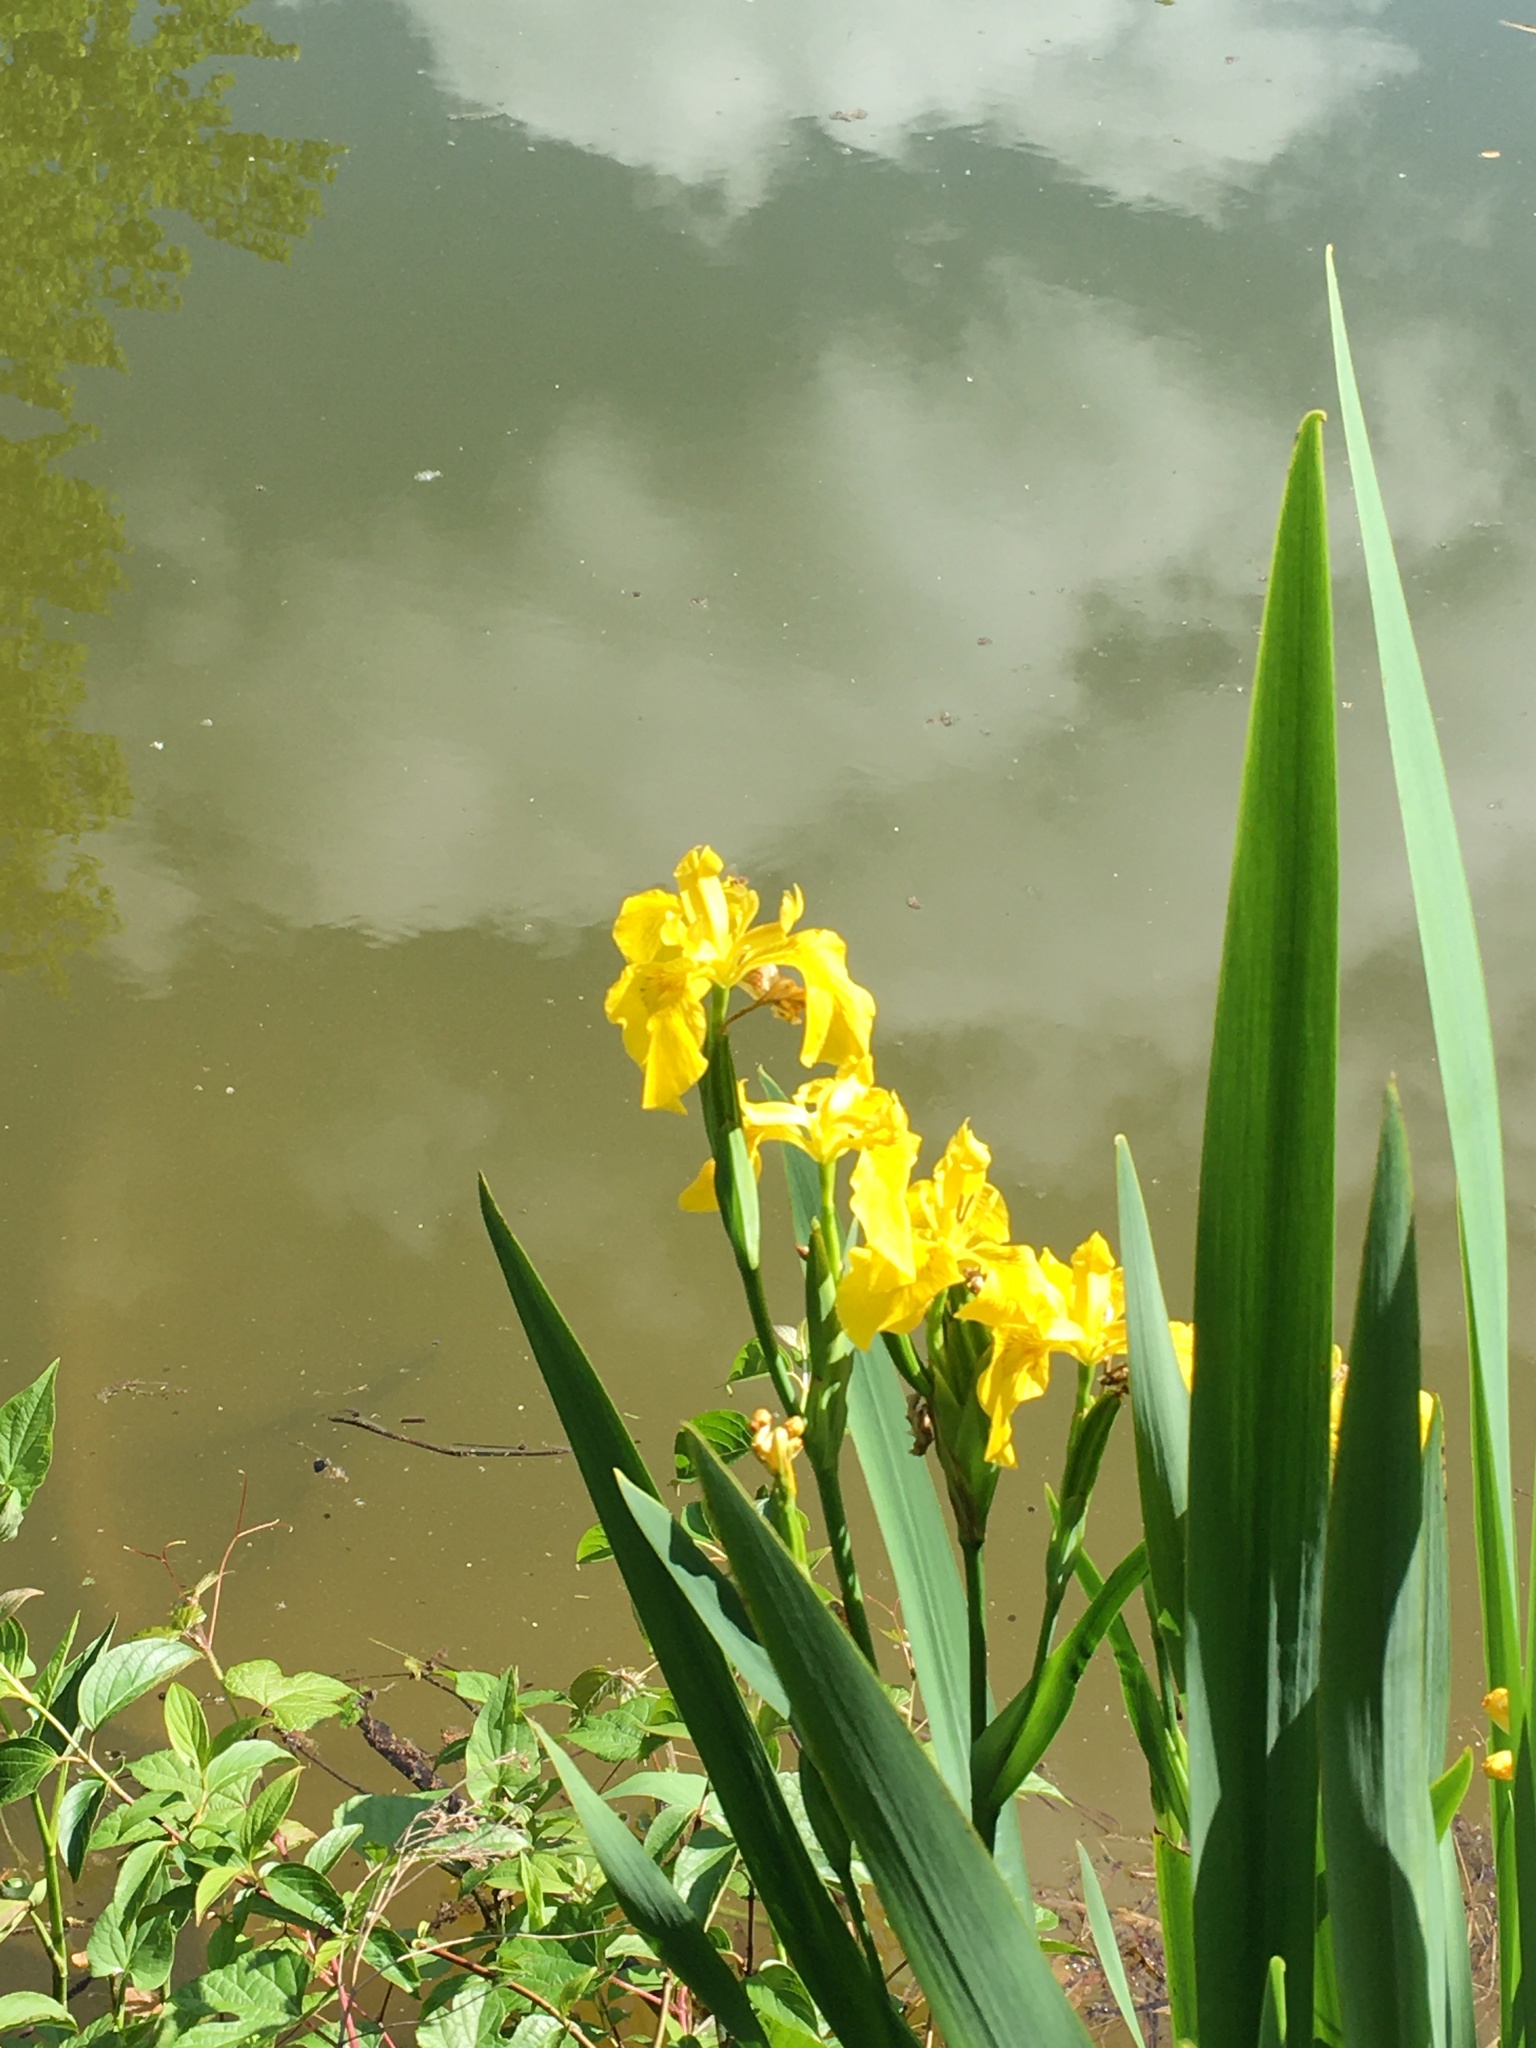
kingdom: Plantae
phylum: Tracheophyta
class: Liliopsida
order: Asparagales
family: Iridaceae
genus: Iris
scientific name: Iris pseudacorus
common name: Yellow flag
